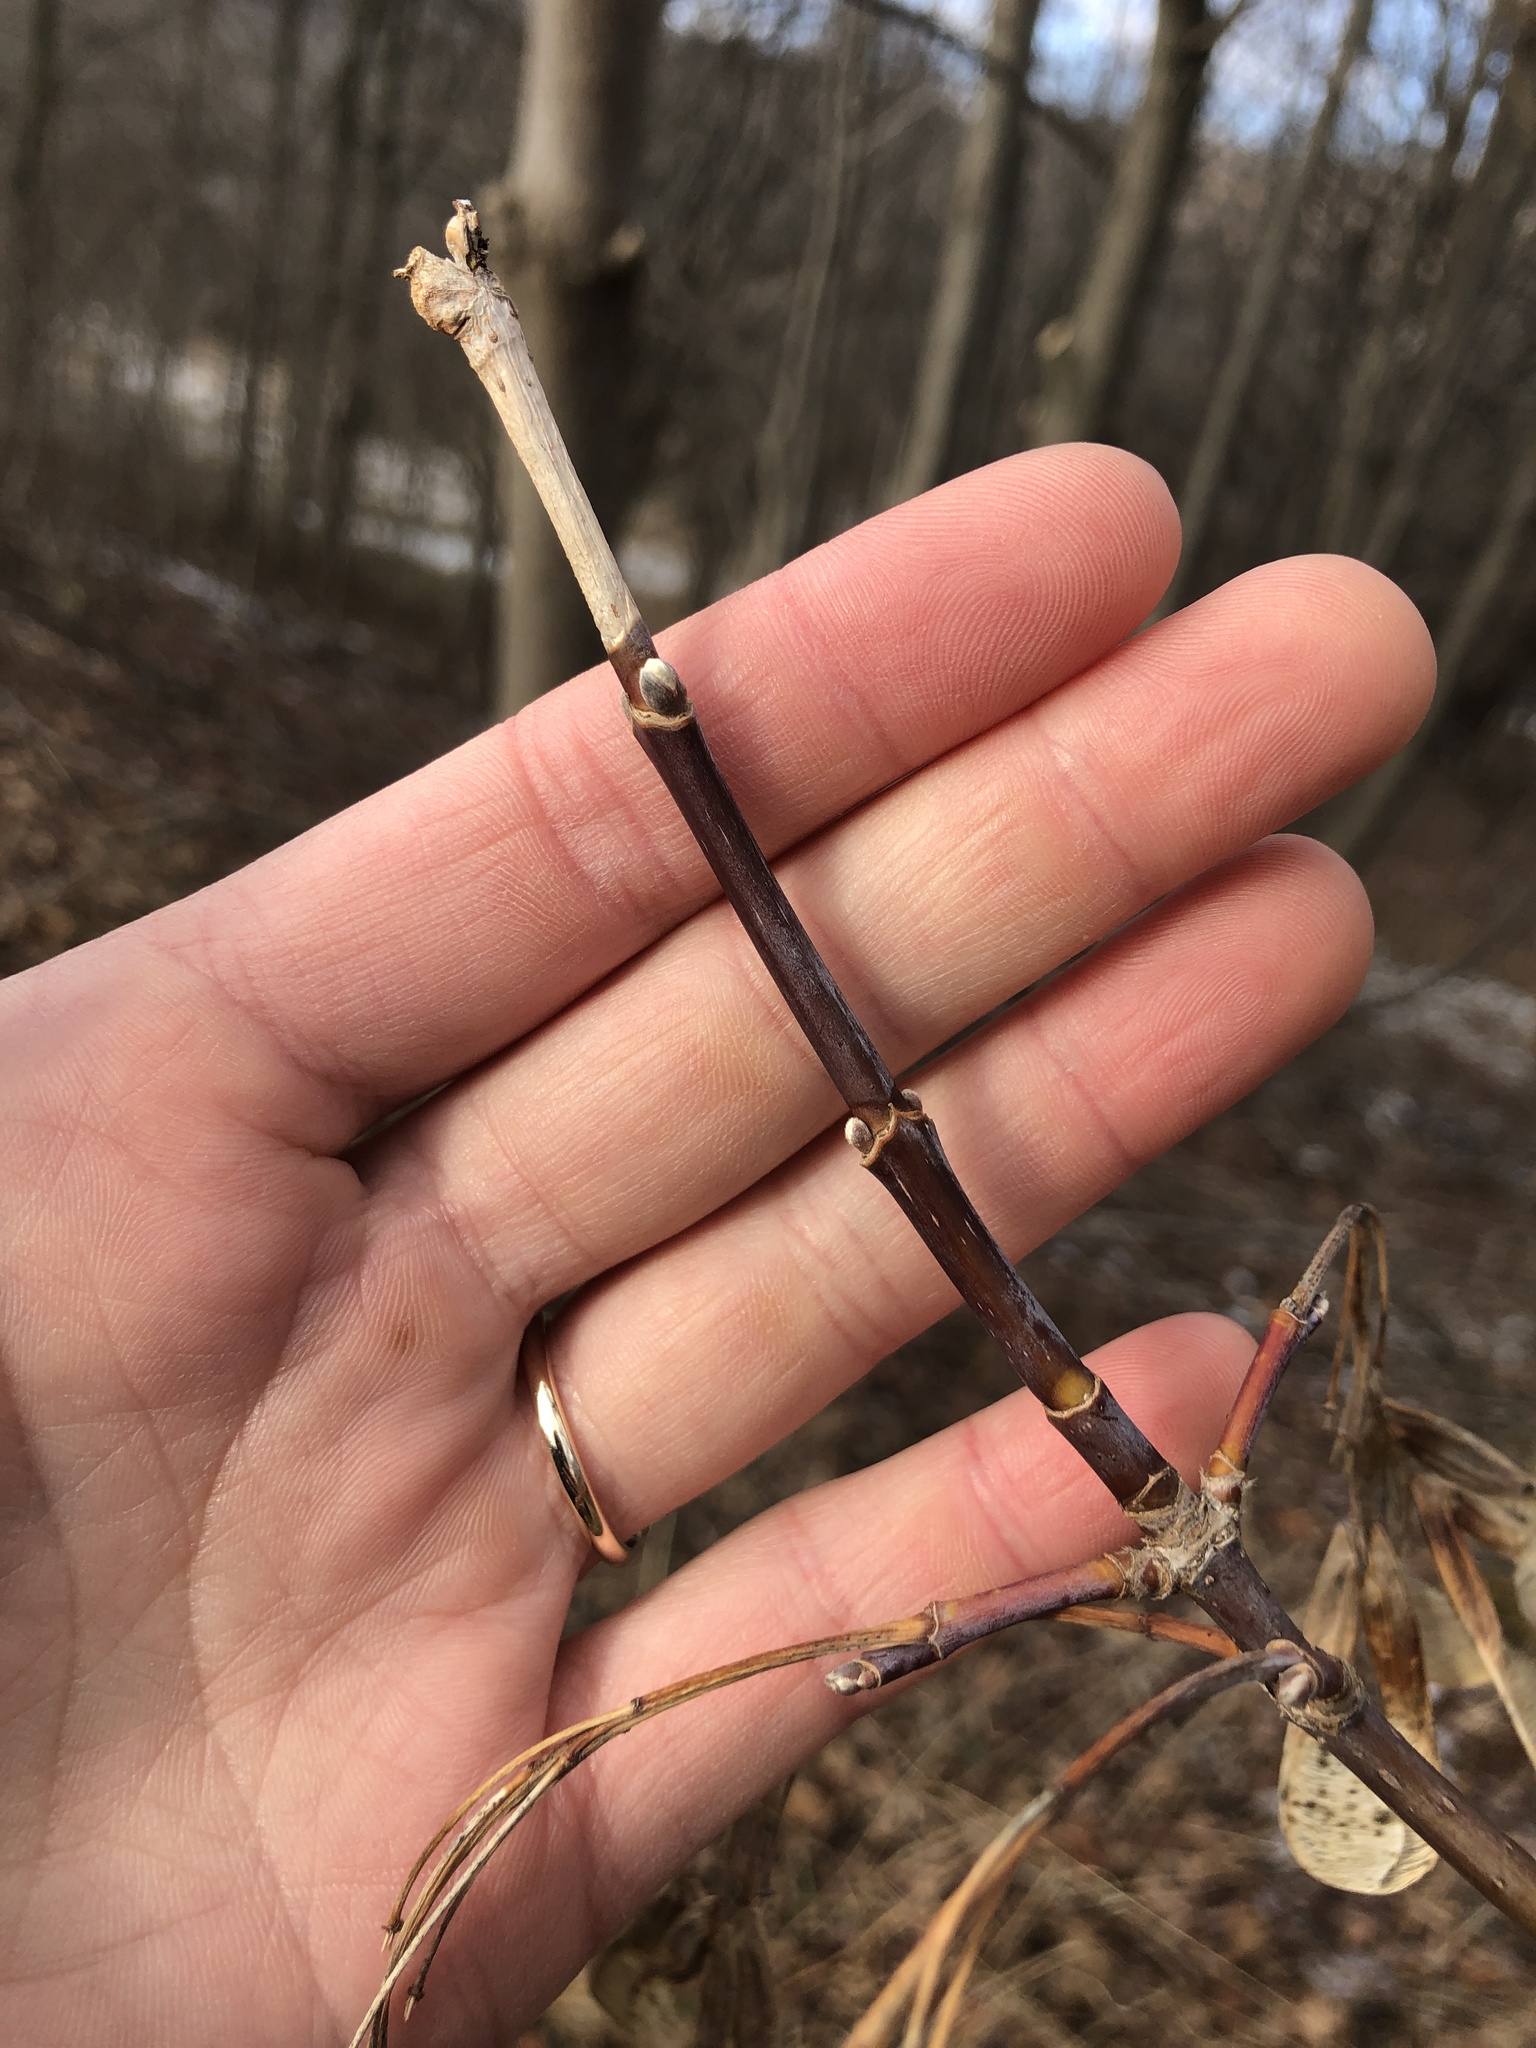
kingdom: Plantae
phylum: Tracheophyta
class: Magnoliopsida
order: Sapindales
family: Sapindaceae
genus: Acer
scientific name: Acer negundo
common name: Ashleaf maple
